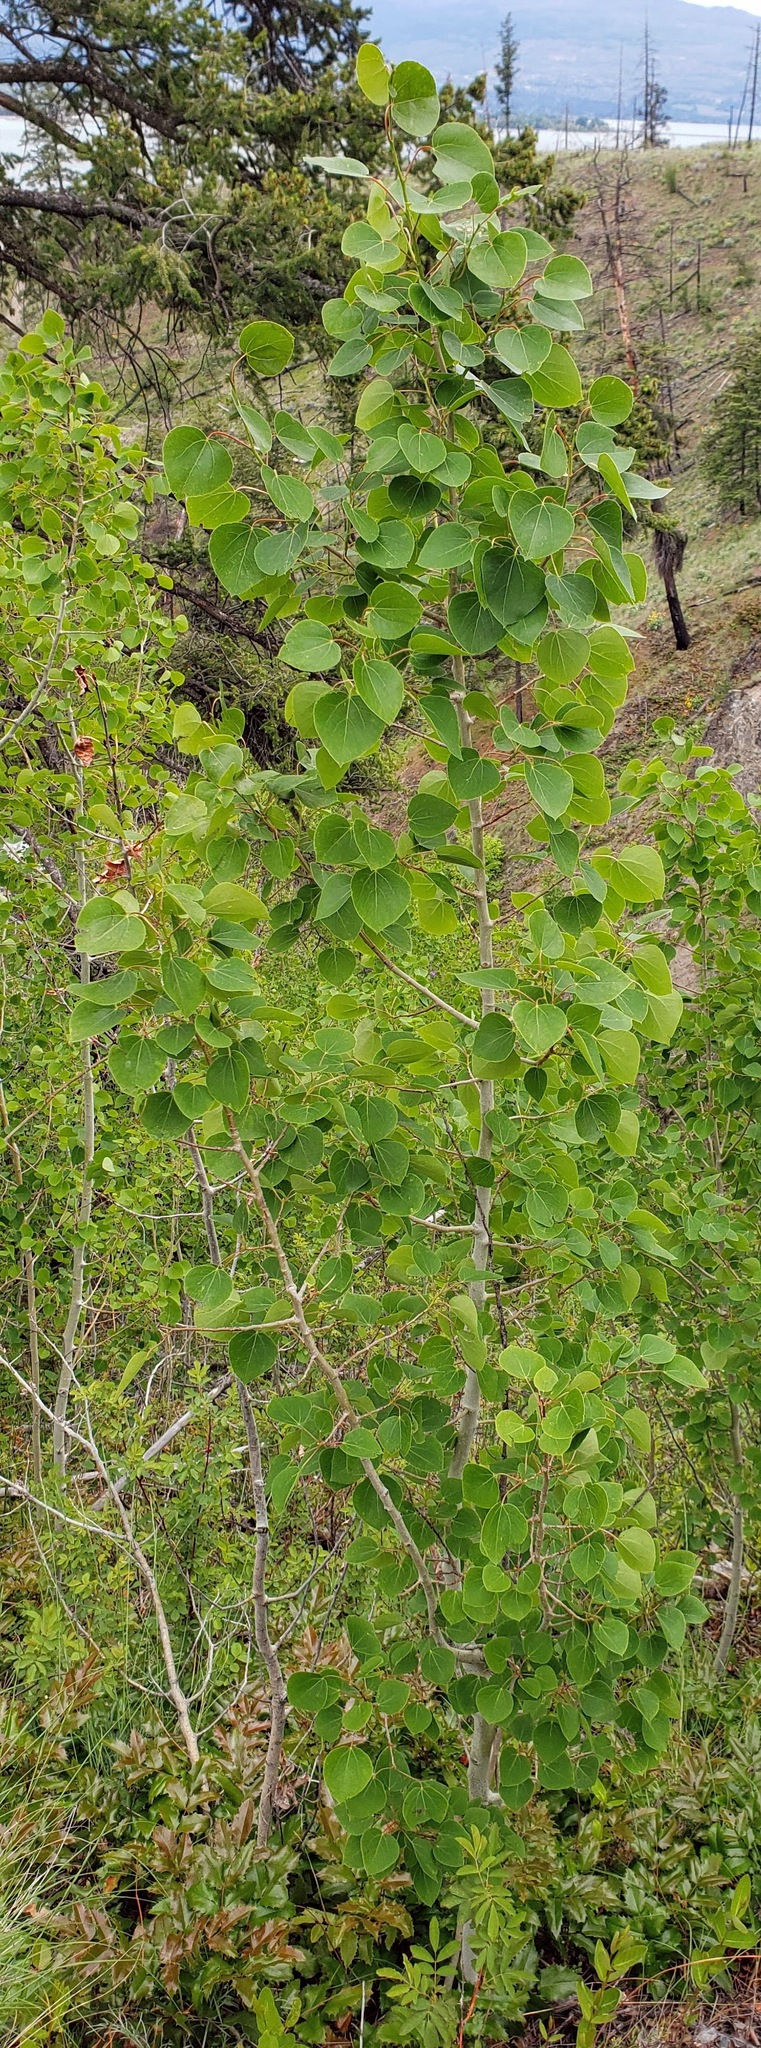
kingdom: Plantae
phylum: Tracheophyta
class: Magnoliopsida
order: Malpighiales
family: Salicaceae
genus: Populus
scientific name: Populus tremuloides
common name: Quaking aspen
